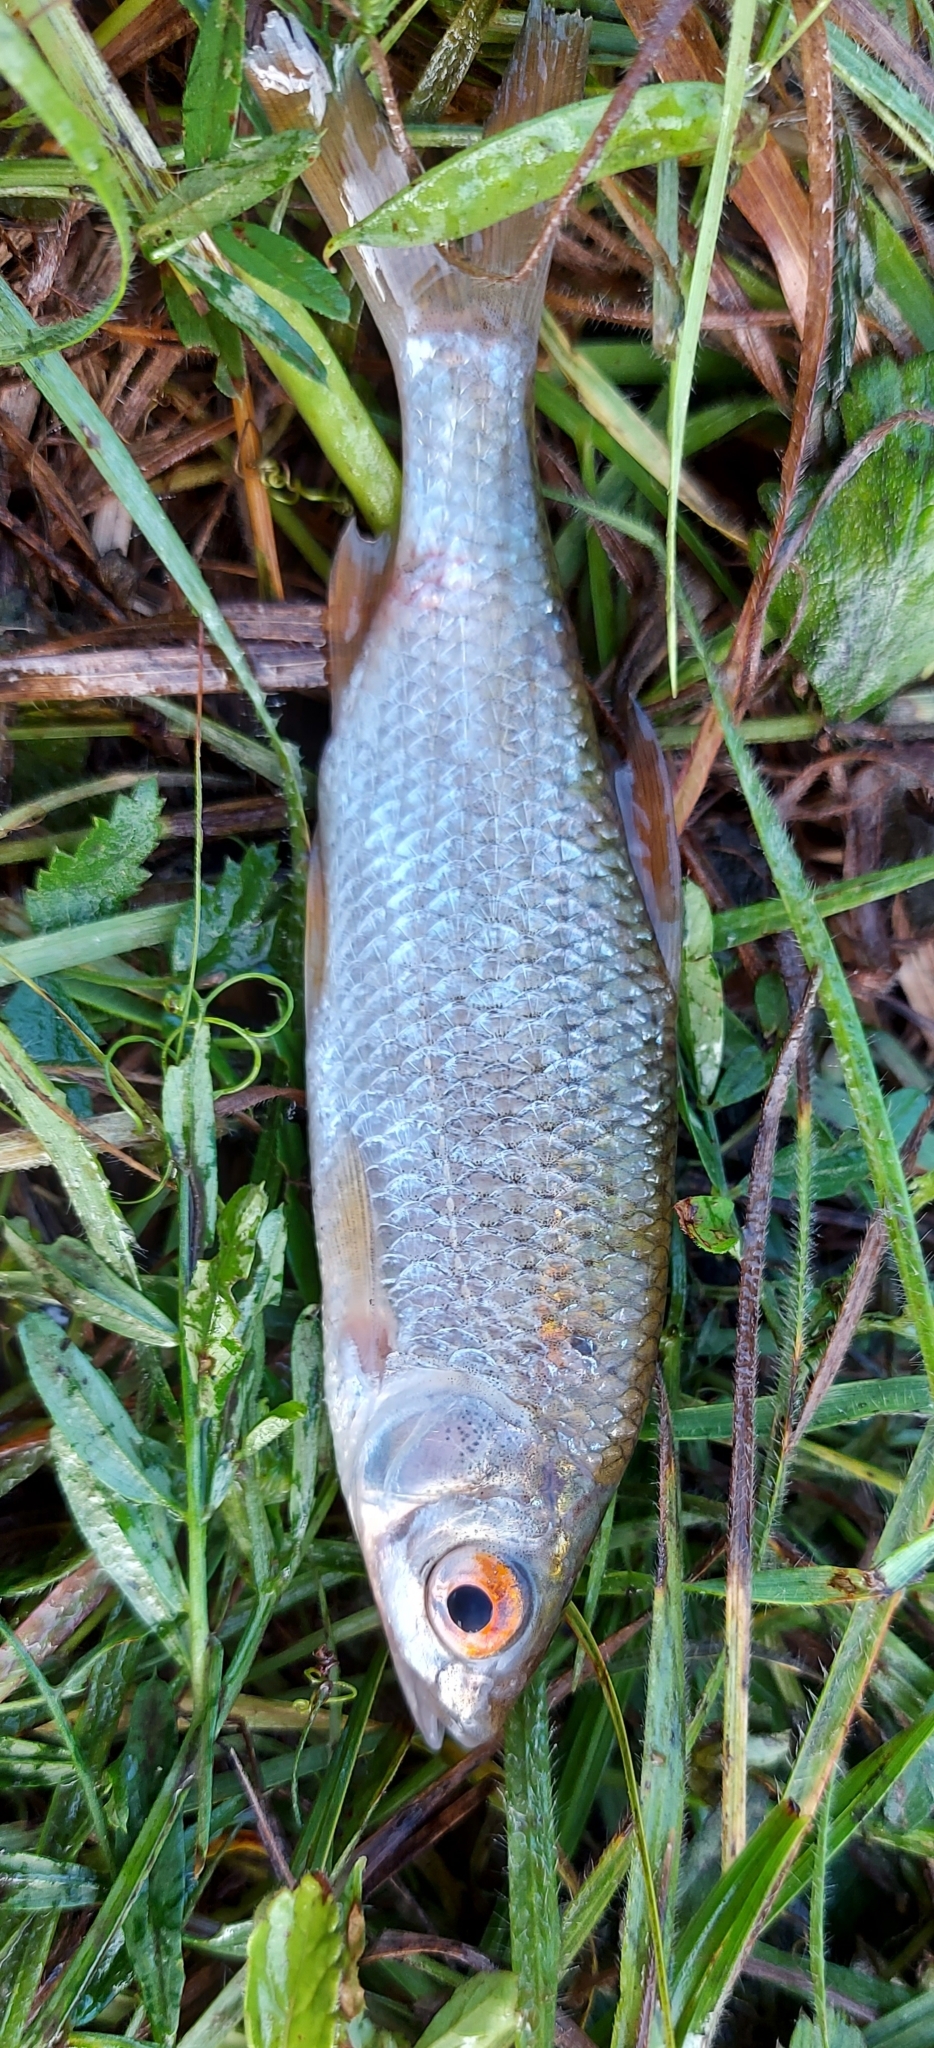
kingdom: Animalia
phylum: Chordata
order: Cypriniformes
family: Cyprinidae
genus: Rutilus
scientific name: Rutilus rutilus
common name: Roach
